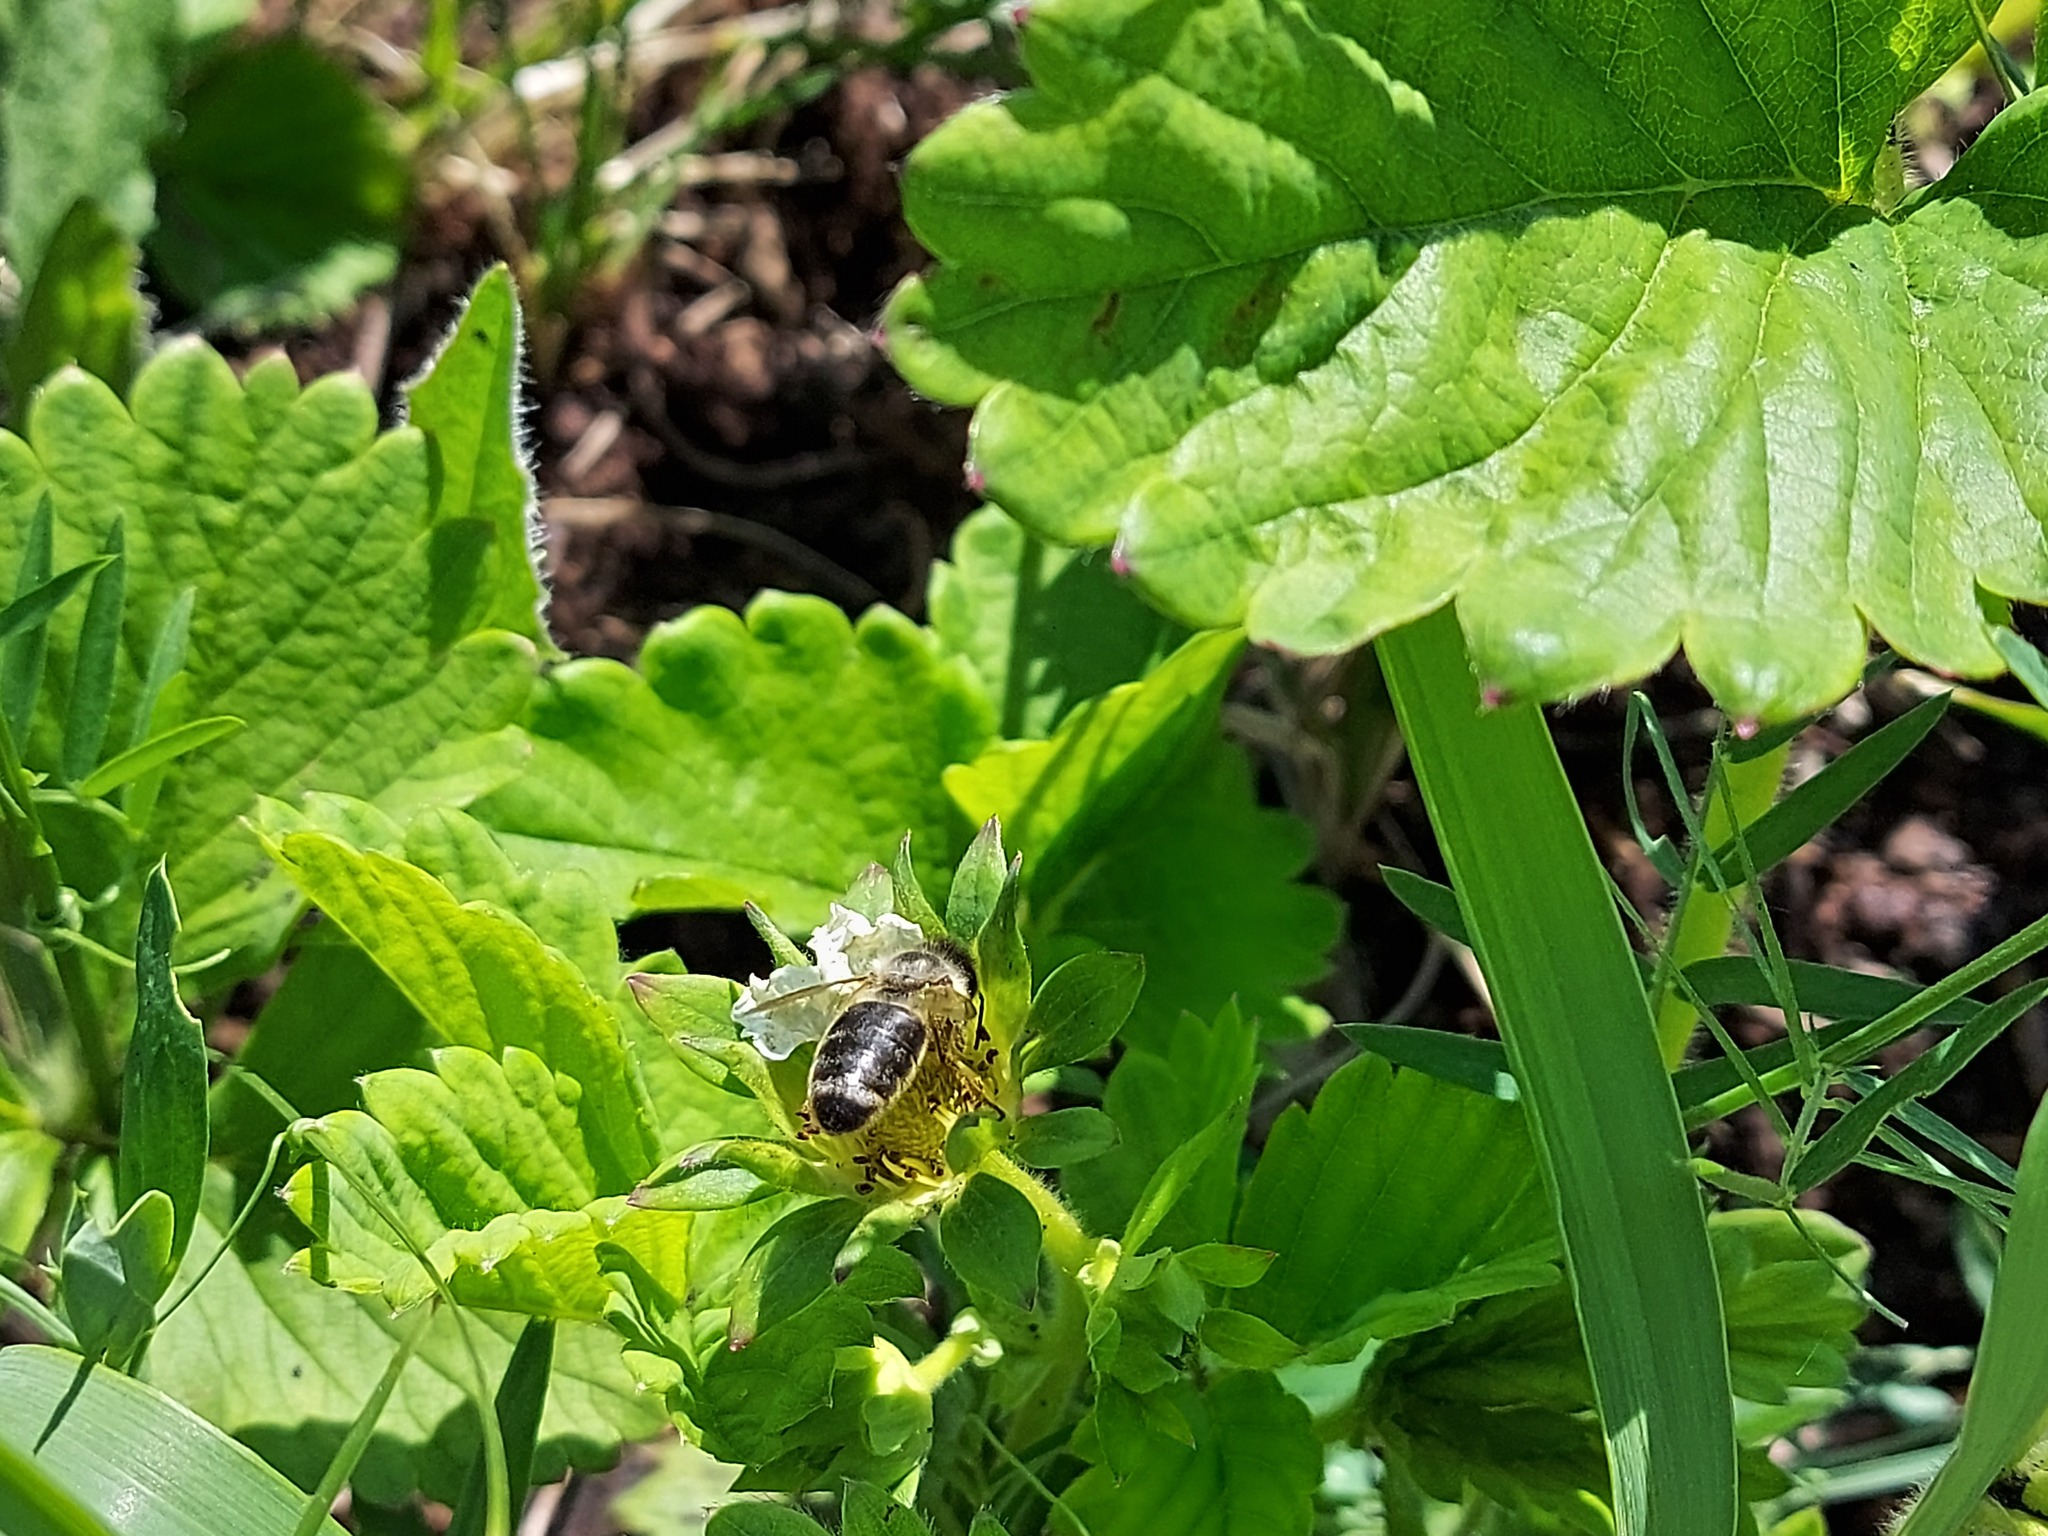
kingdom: Animalia
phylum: Arthropoda
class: Insecta
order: Hymenoptera
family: Apidae
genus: Apis
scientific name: Apis mellifera
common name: Honey bee
